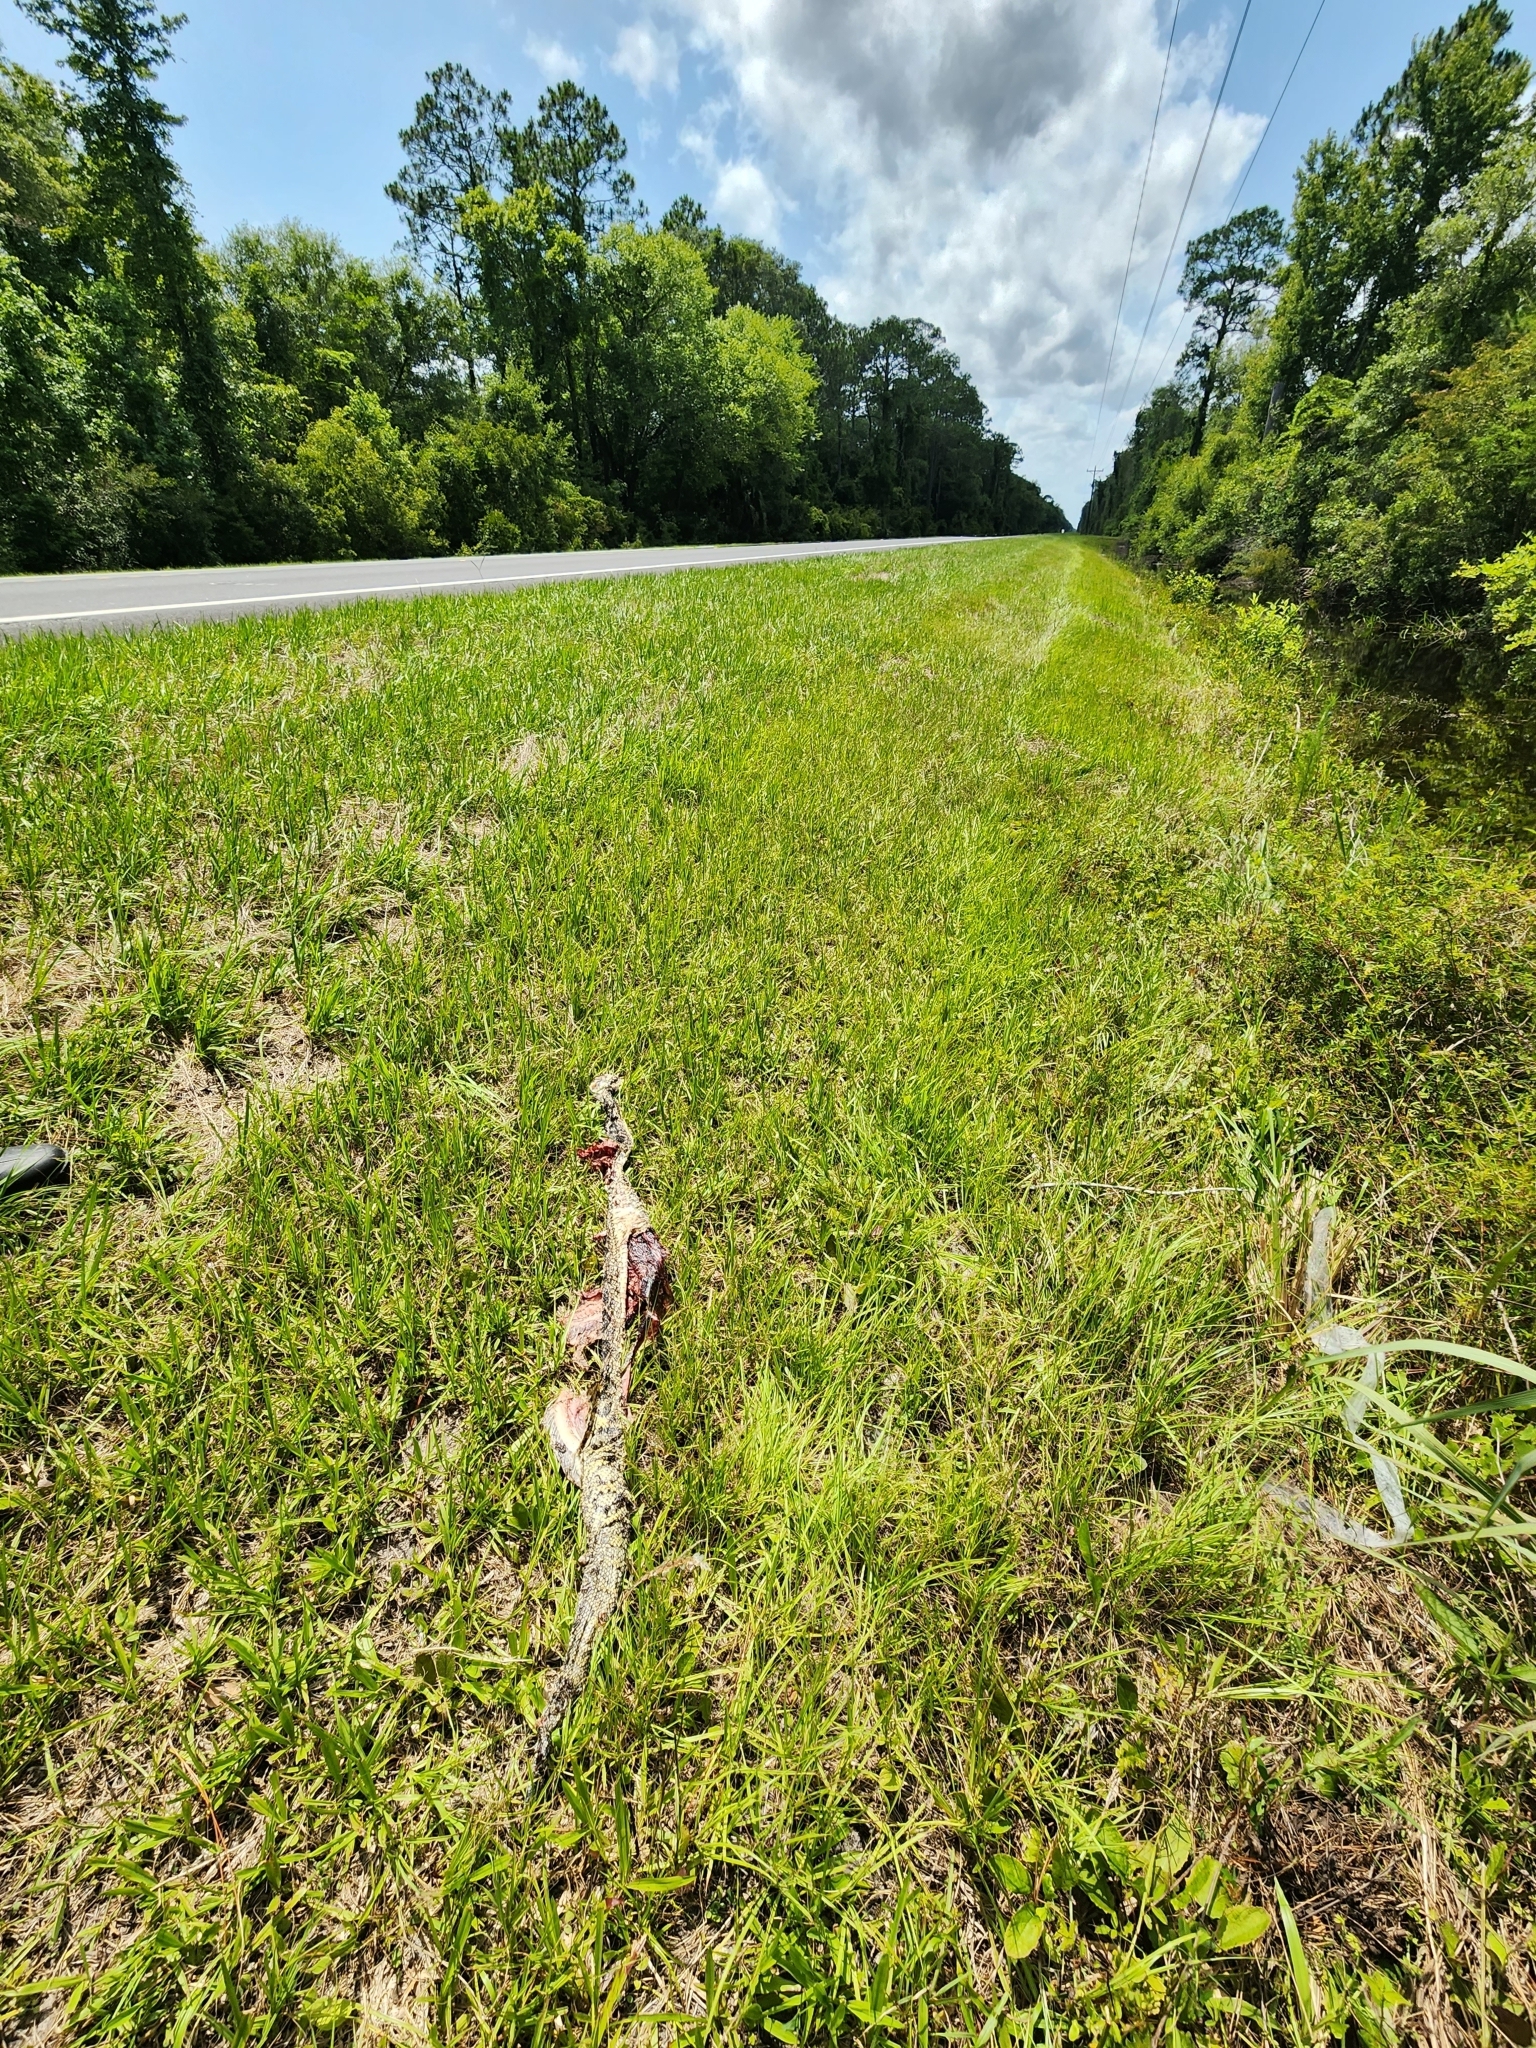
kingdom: Animalia
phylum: Chordata
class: Squamata
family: Viperidae
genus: Crotalus
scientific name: Crotalus adamanteus
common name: Eastern diamondback rattlesnake
